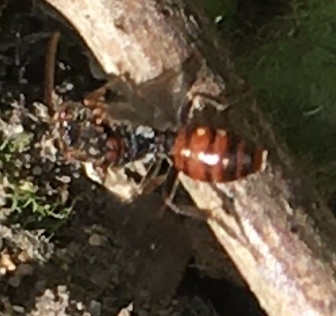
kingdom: Animalia
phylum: Arthropoda
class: Insecta
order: Hymenoptera
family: Apidae
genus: Nomada
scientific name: Nomada flavoguttata
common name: Little nomad bee
